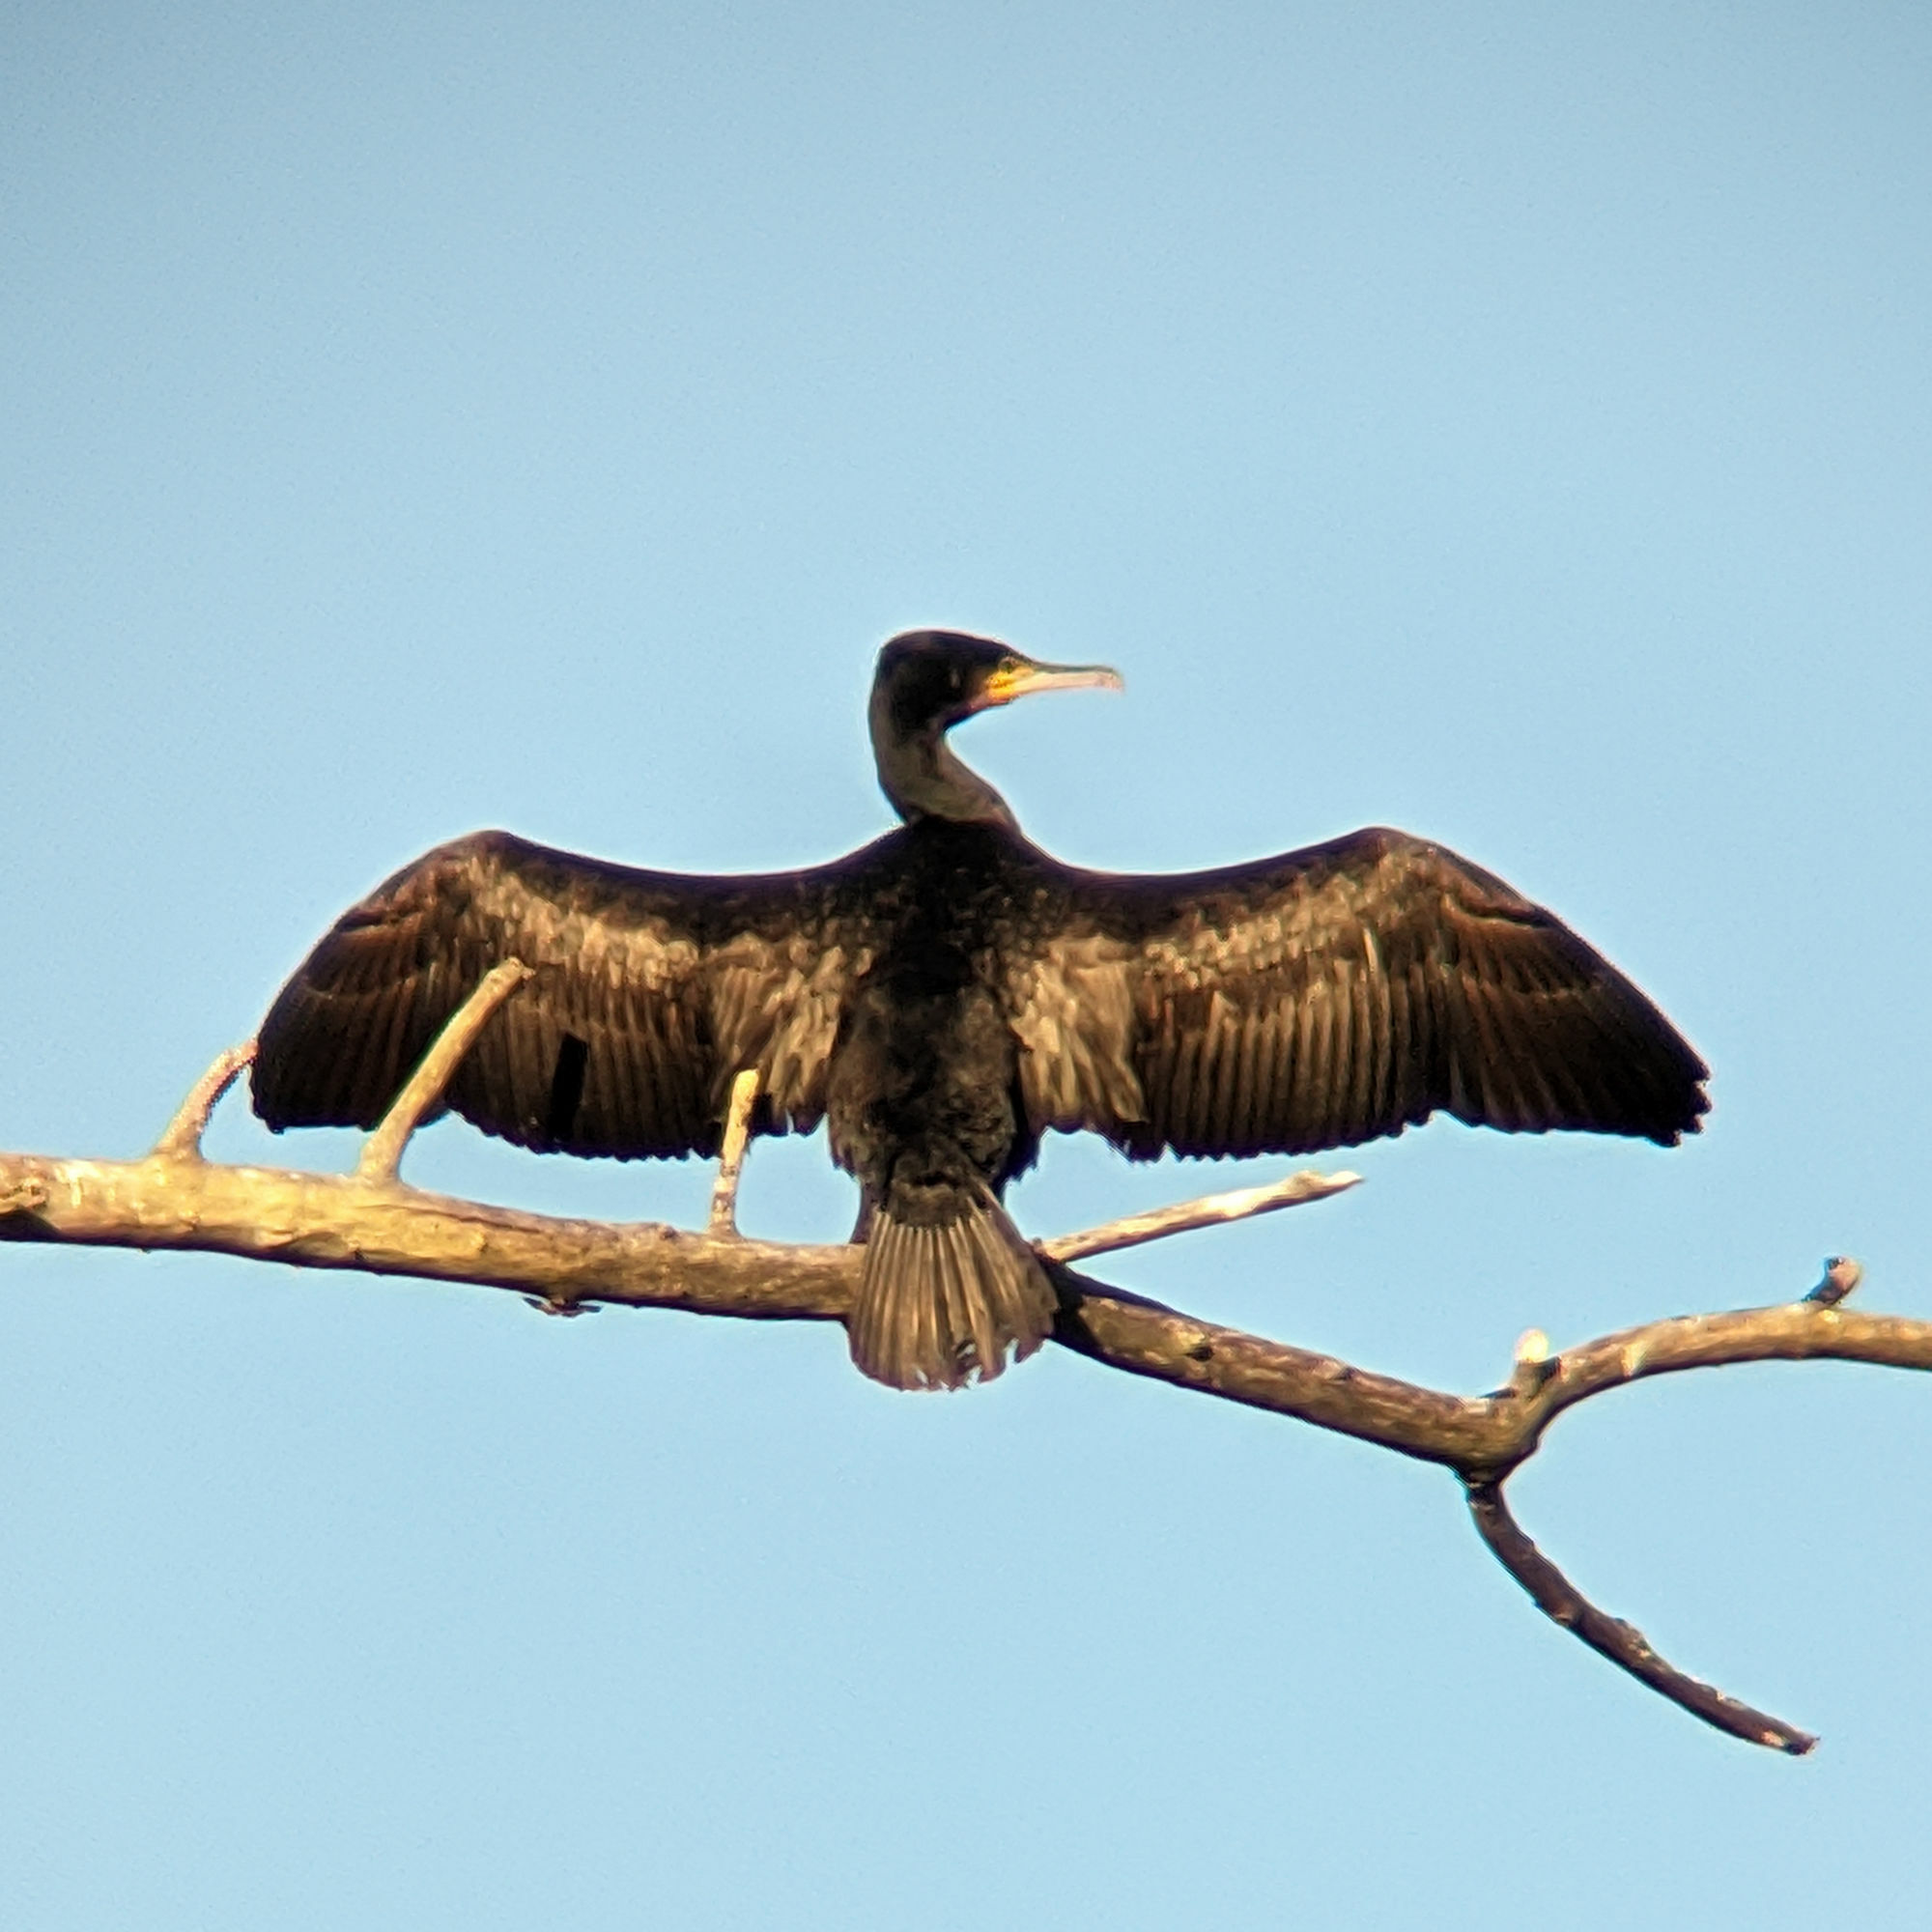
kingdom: Animalia
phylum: Chordata
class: Aves
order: Suliformes
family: Phalacrocoracidae
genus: Phalacrocorax
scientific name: Phalacrocorax carbo
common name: Great cormorant
